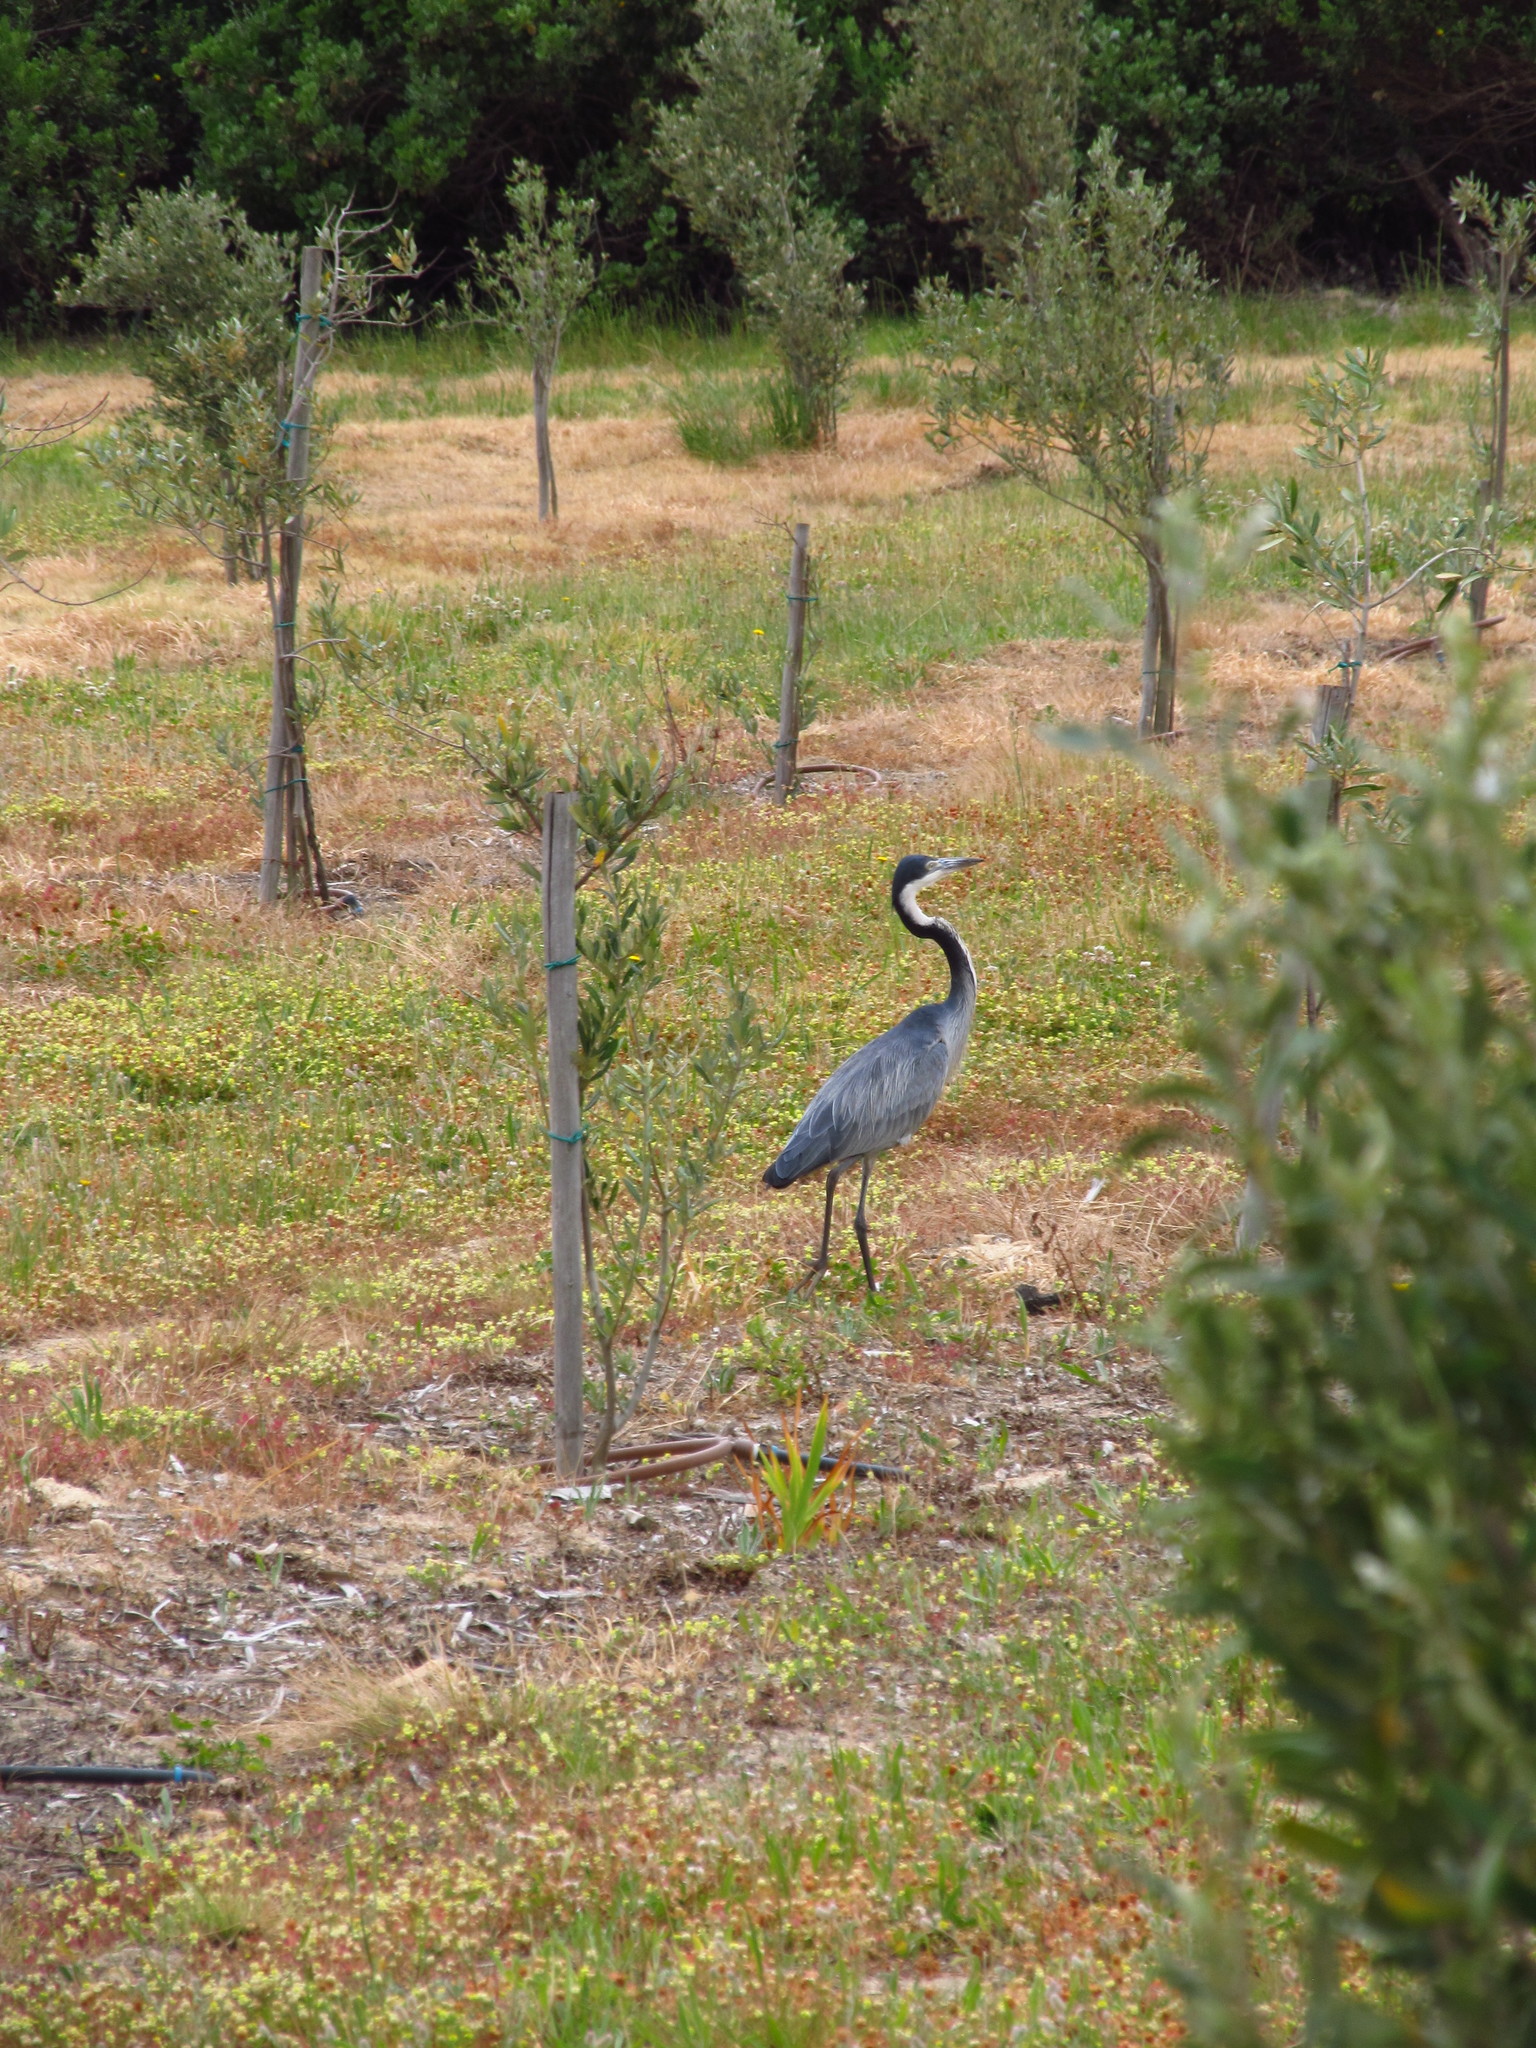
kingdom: Animalia
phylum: Chordata
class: Aves
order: Pelecaniformes
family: Ardeidae
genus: Ardea
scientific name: Ardea melanocephala
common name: Black-headed heron
